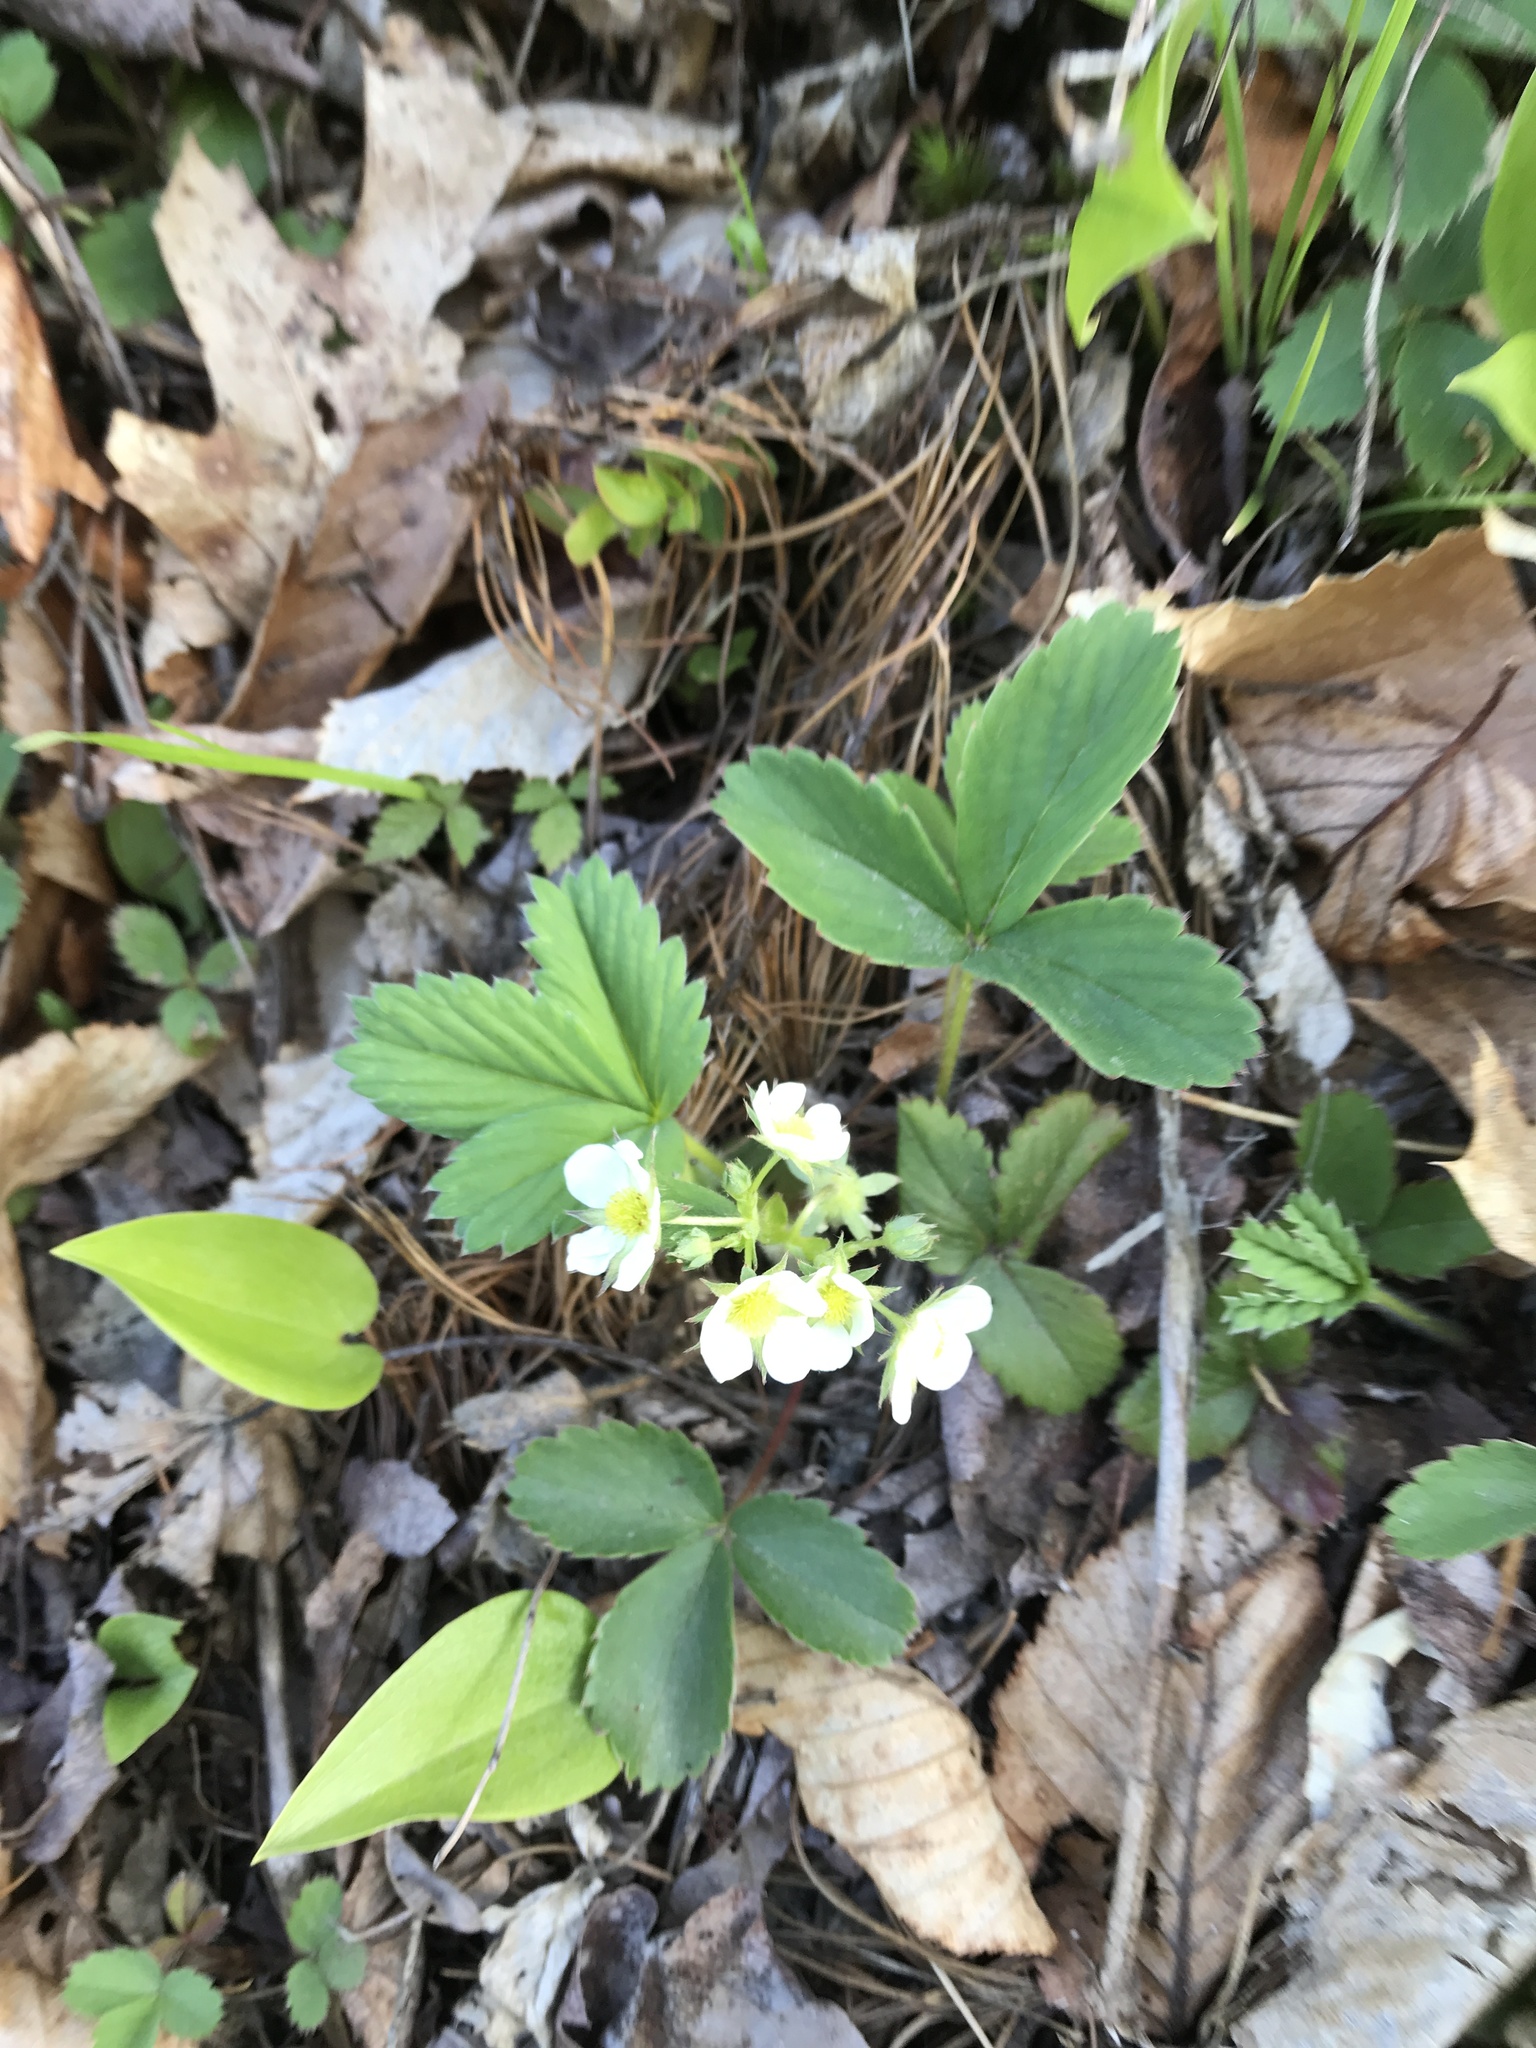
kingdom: Plantae
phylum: Tracheophyta
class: Magnoliopsida
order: Rosales
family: Rosaceae
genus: Fragaria
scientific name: Fragaria virginiana
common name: Thickleaved wild strawberry
